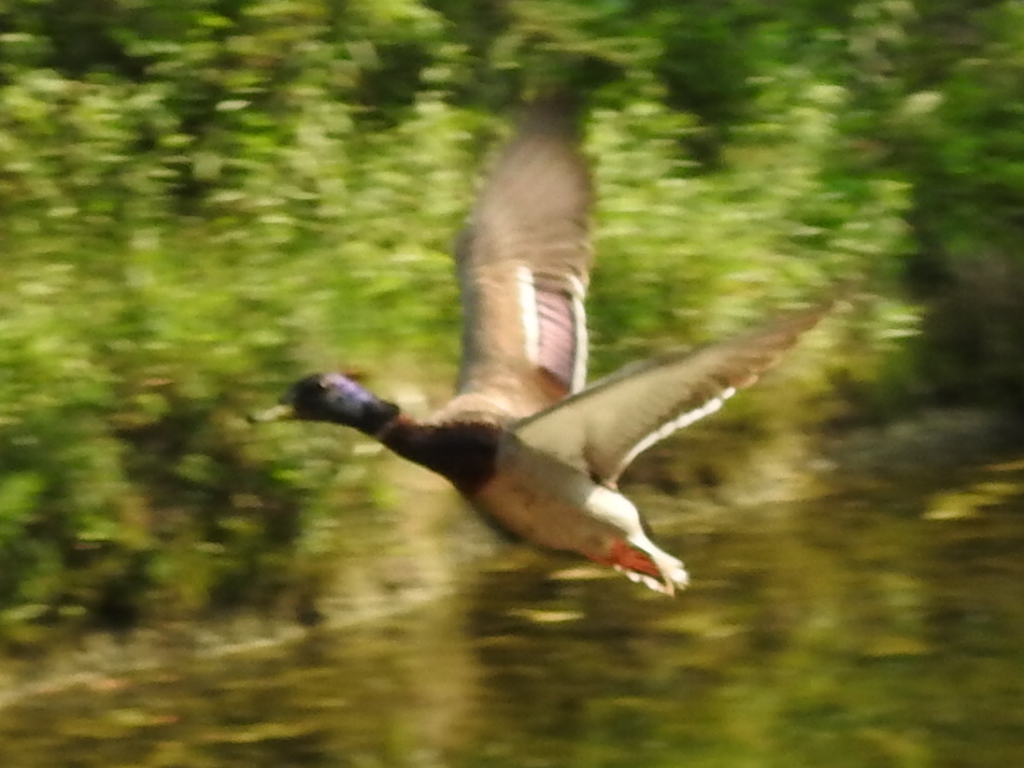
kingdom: Animalia
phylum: Chordata
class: Aves
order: Anseriformes
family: Anatidae
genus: Anas
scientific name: Anas platyrhynchos
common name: Mallard
